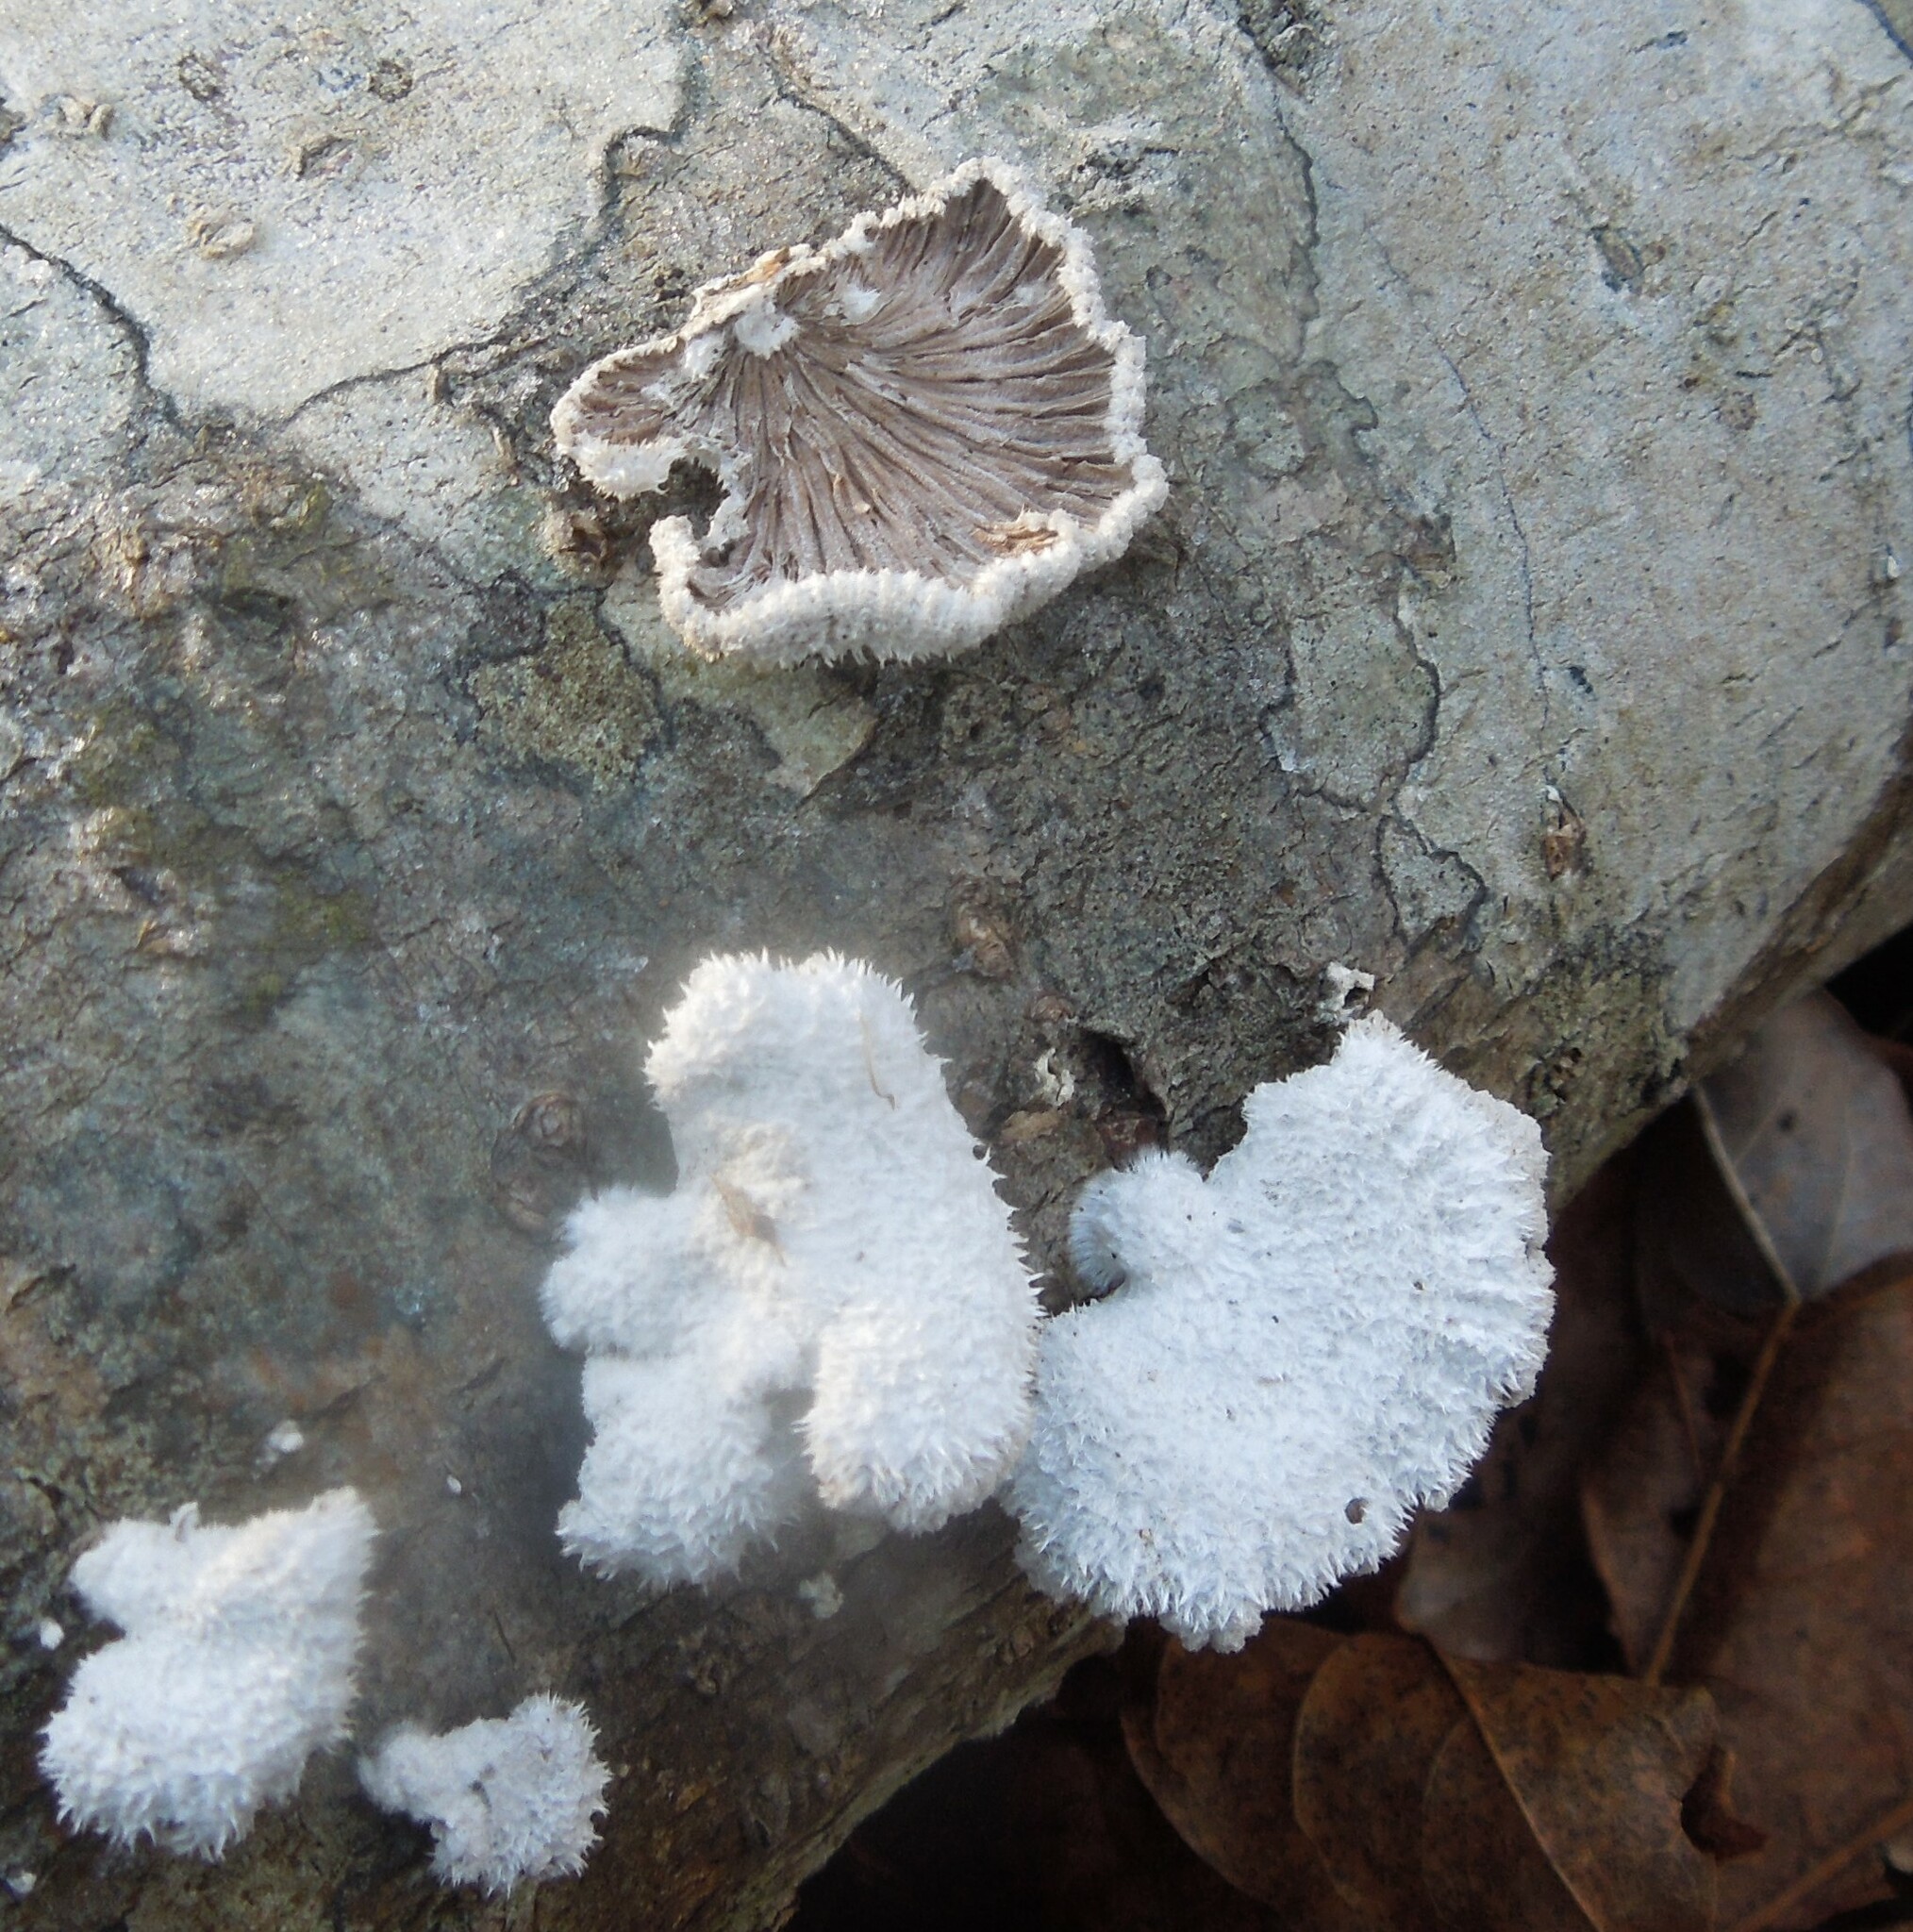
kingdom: Fungi
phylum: Basidiomycota
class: Agaricomycetes
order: Agaricales
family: Schizophyllaceae
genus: Schizophyllum
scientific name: Schizophyllum commune
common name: Common porecrust
